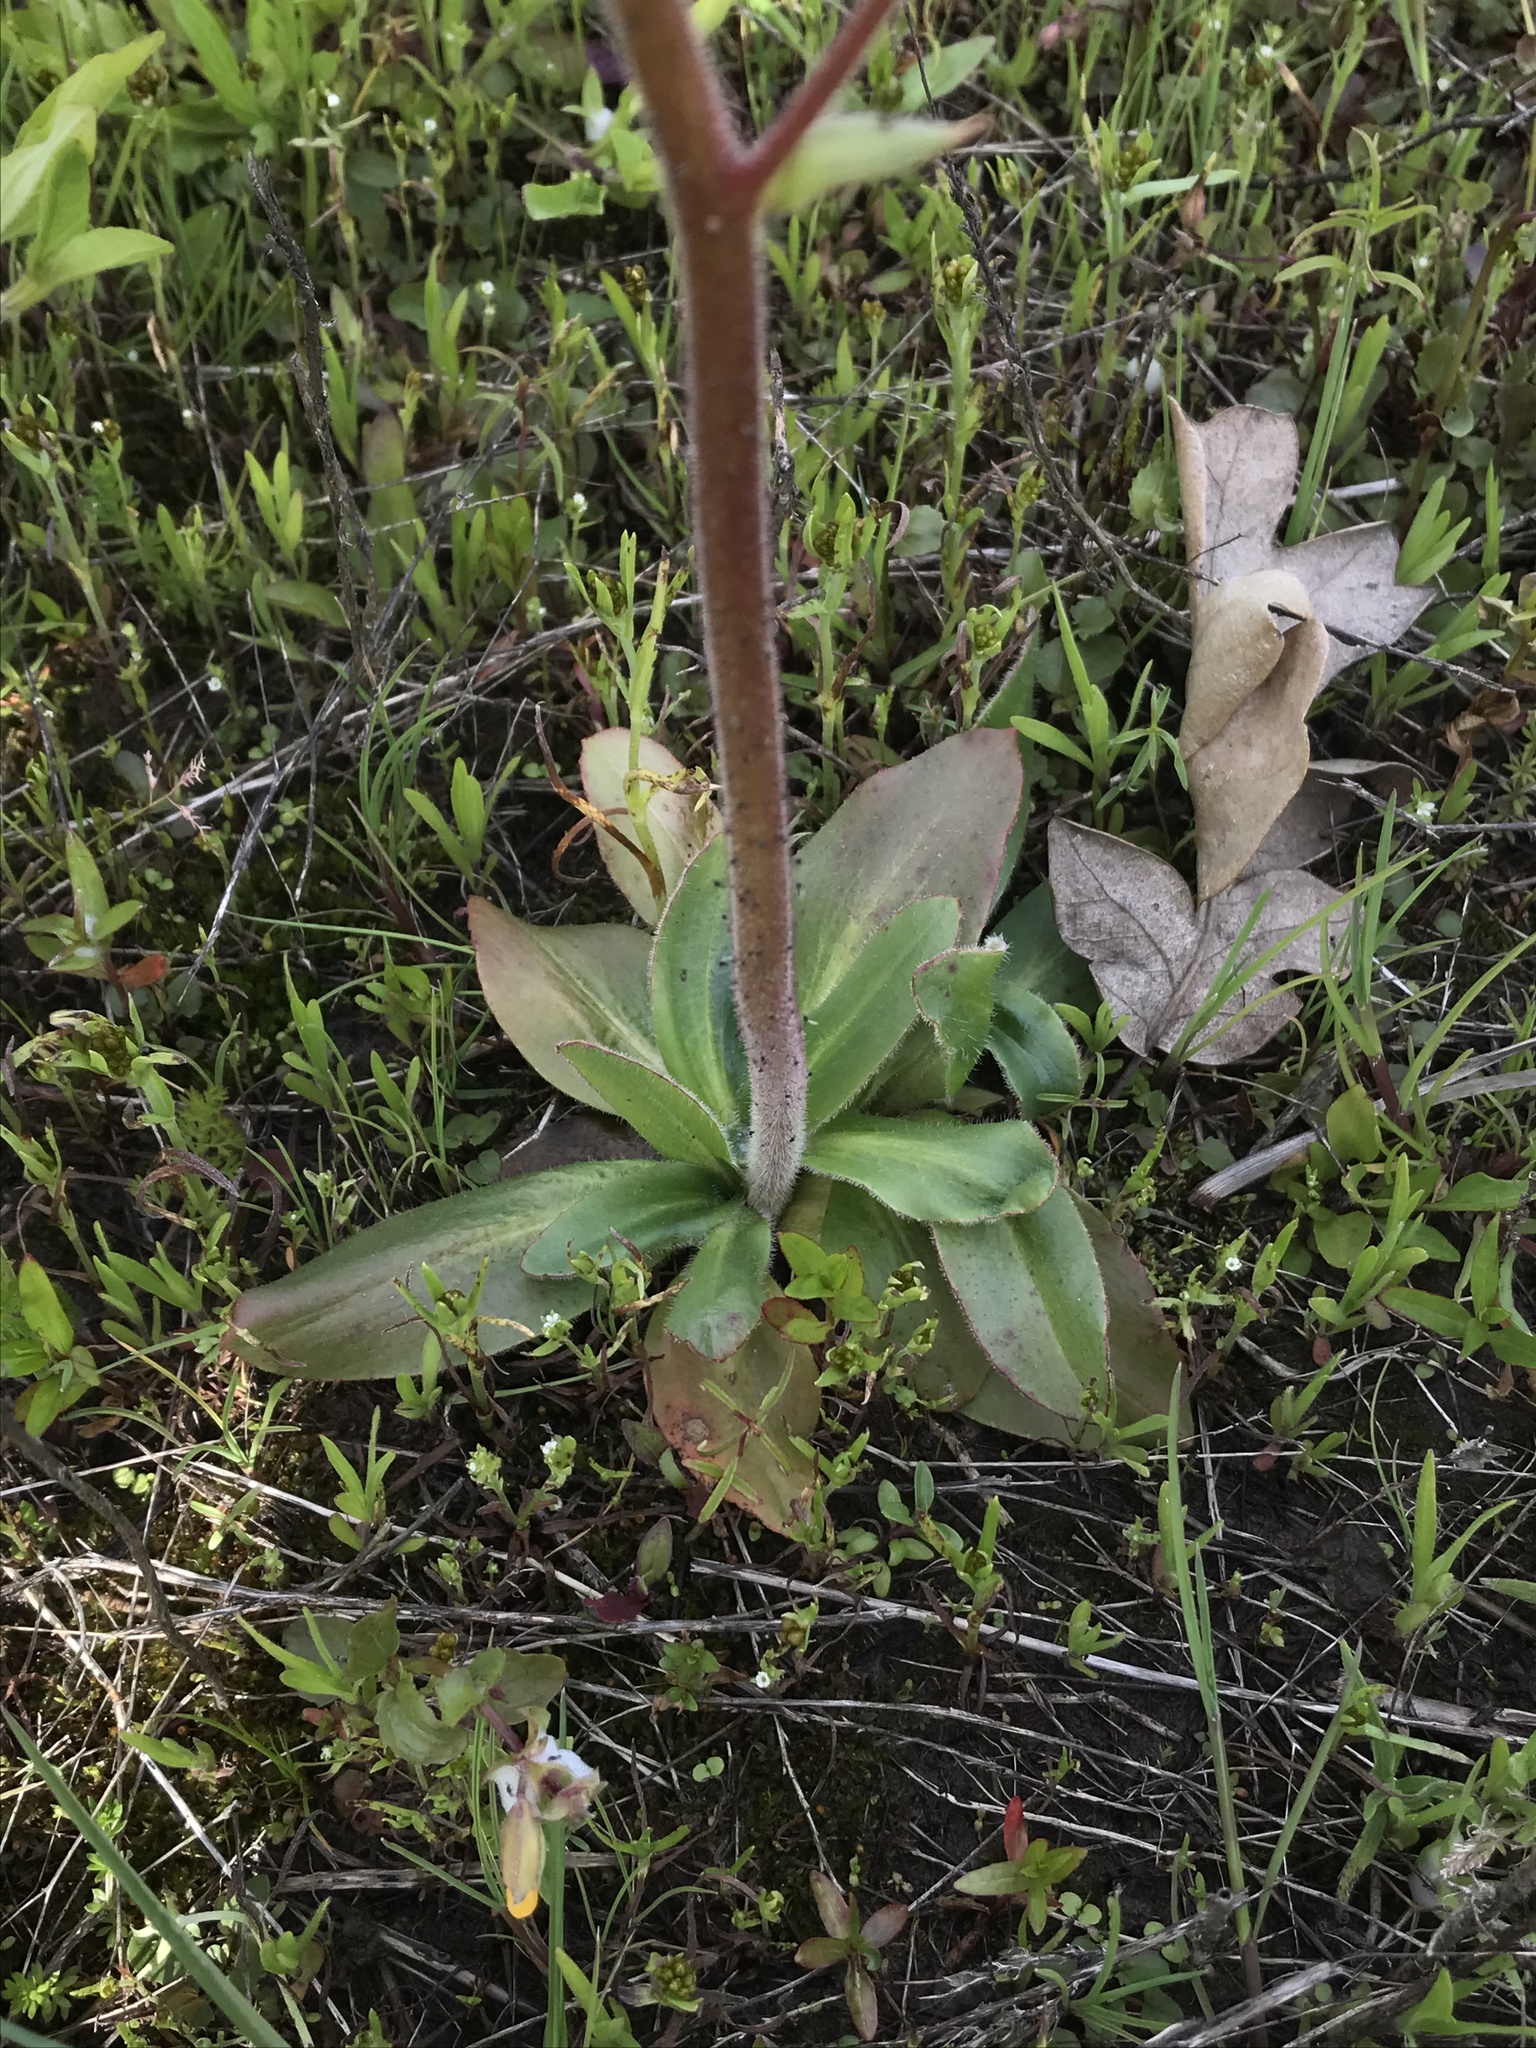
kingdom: Plantae
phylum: Tracheophyta
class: Magnoliopsida
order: Saxifragales
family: Saxifragaceae
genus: Micranthes
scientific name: Micranthes oregana
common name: Bog saxifrage
